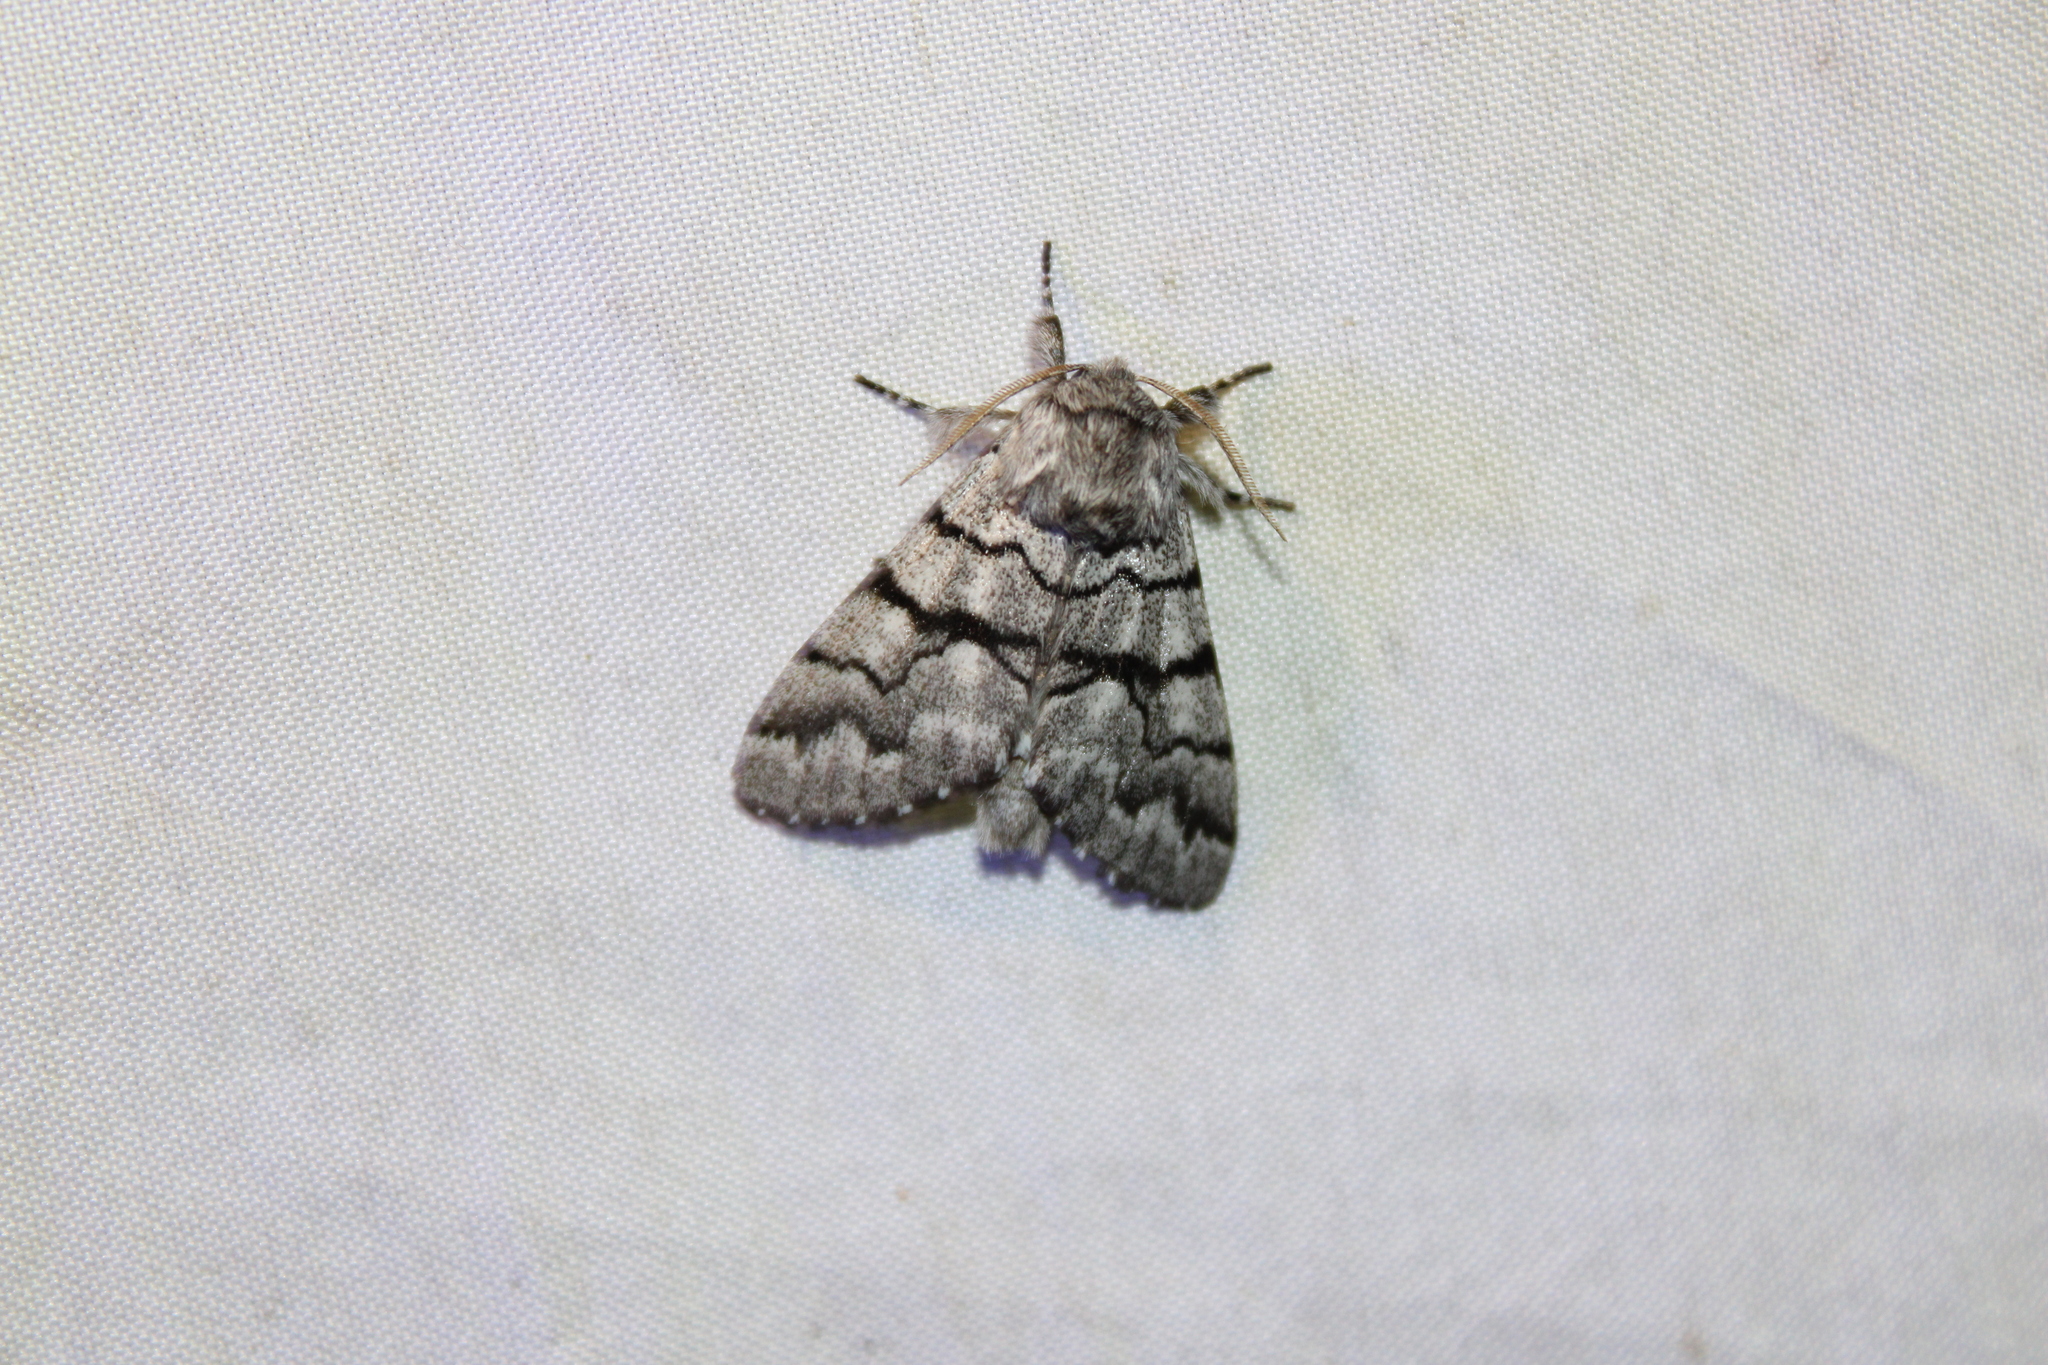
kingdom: Animalia
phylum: Arthropoda
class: Insecta
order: Lepidoptera
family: Noctuidae
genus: Panthea
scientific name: Panthea furcilla
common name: Eastern panthea moth
